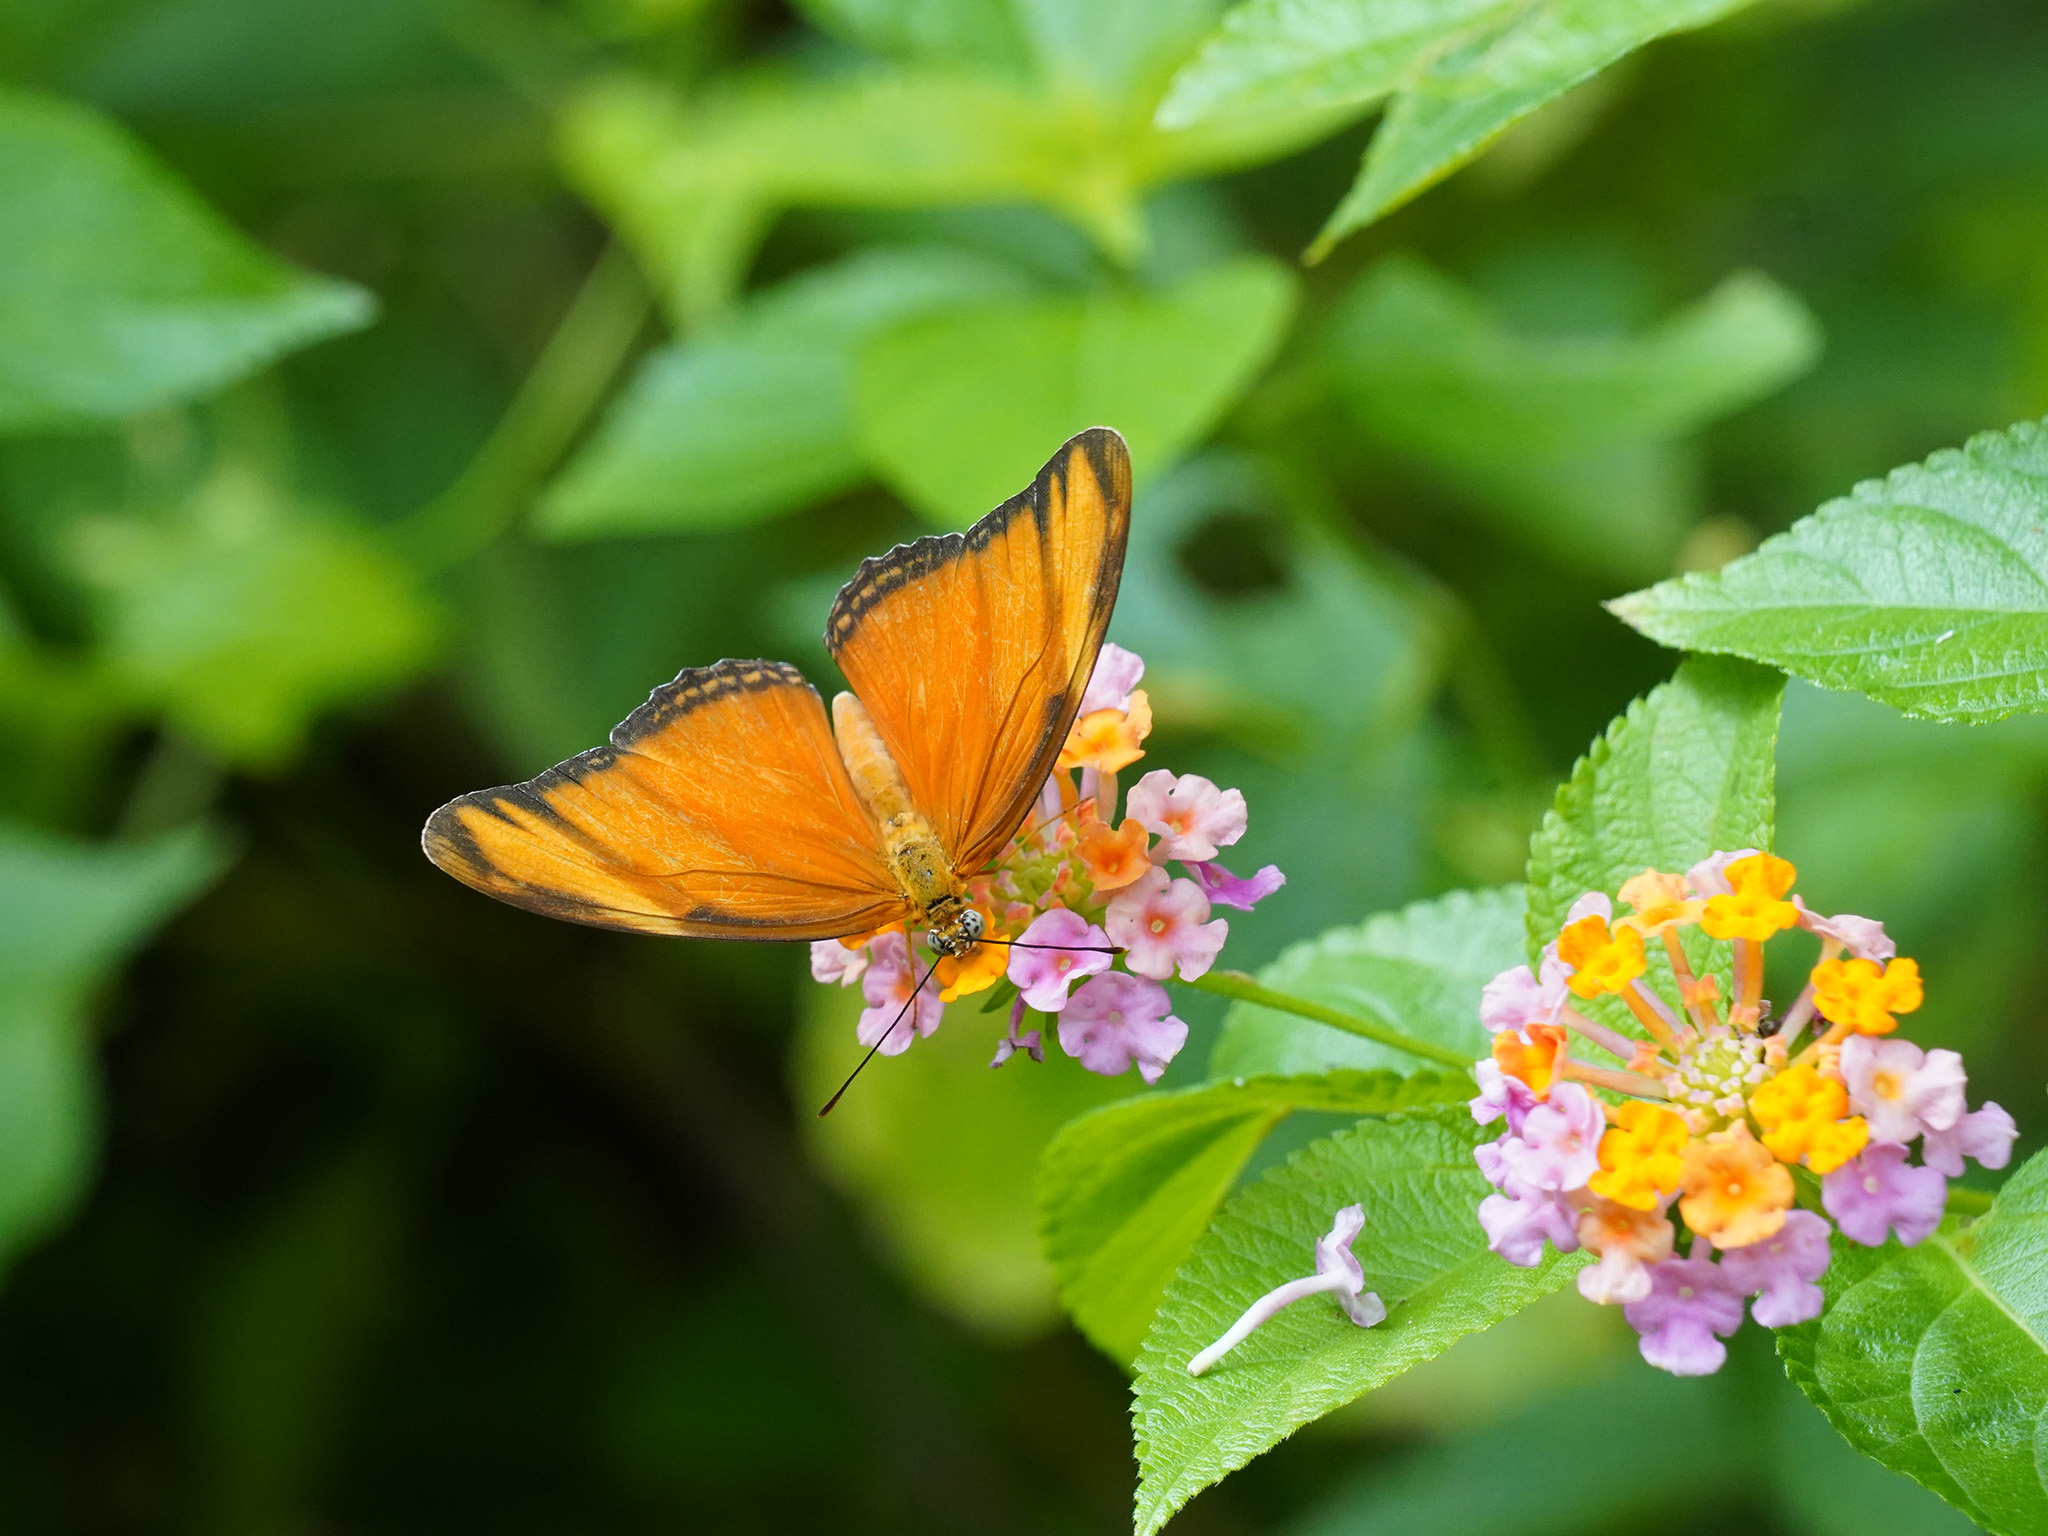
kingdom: Animalia
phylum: Arthropoda
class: Insecta
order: Lepidoptera
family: Nymphalidae
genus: Dryas
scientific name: Dryas iulia
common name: Flambeau
